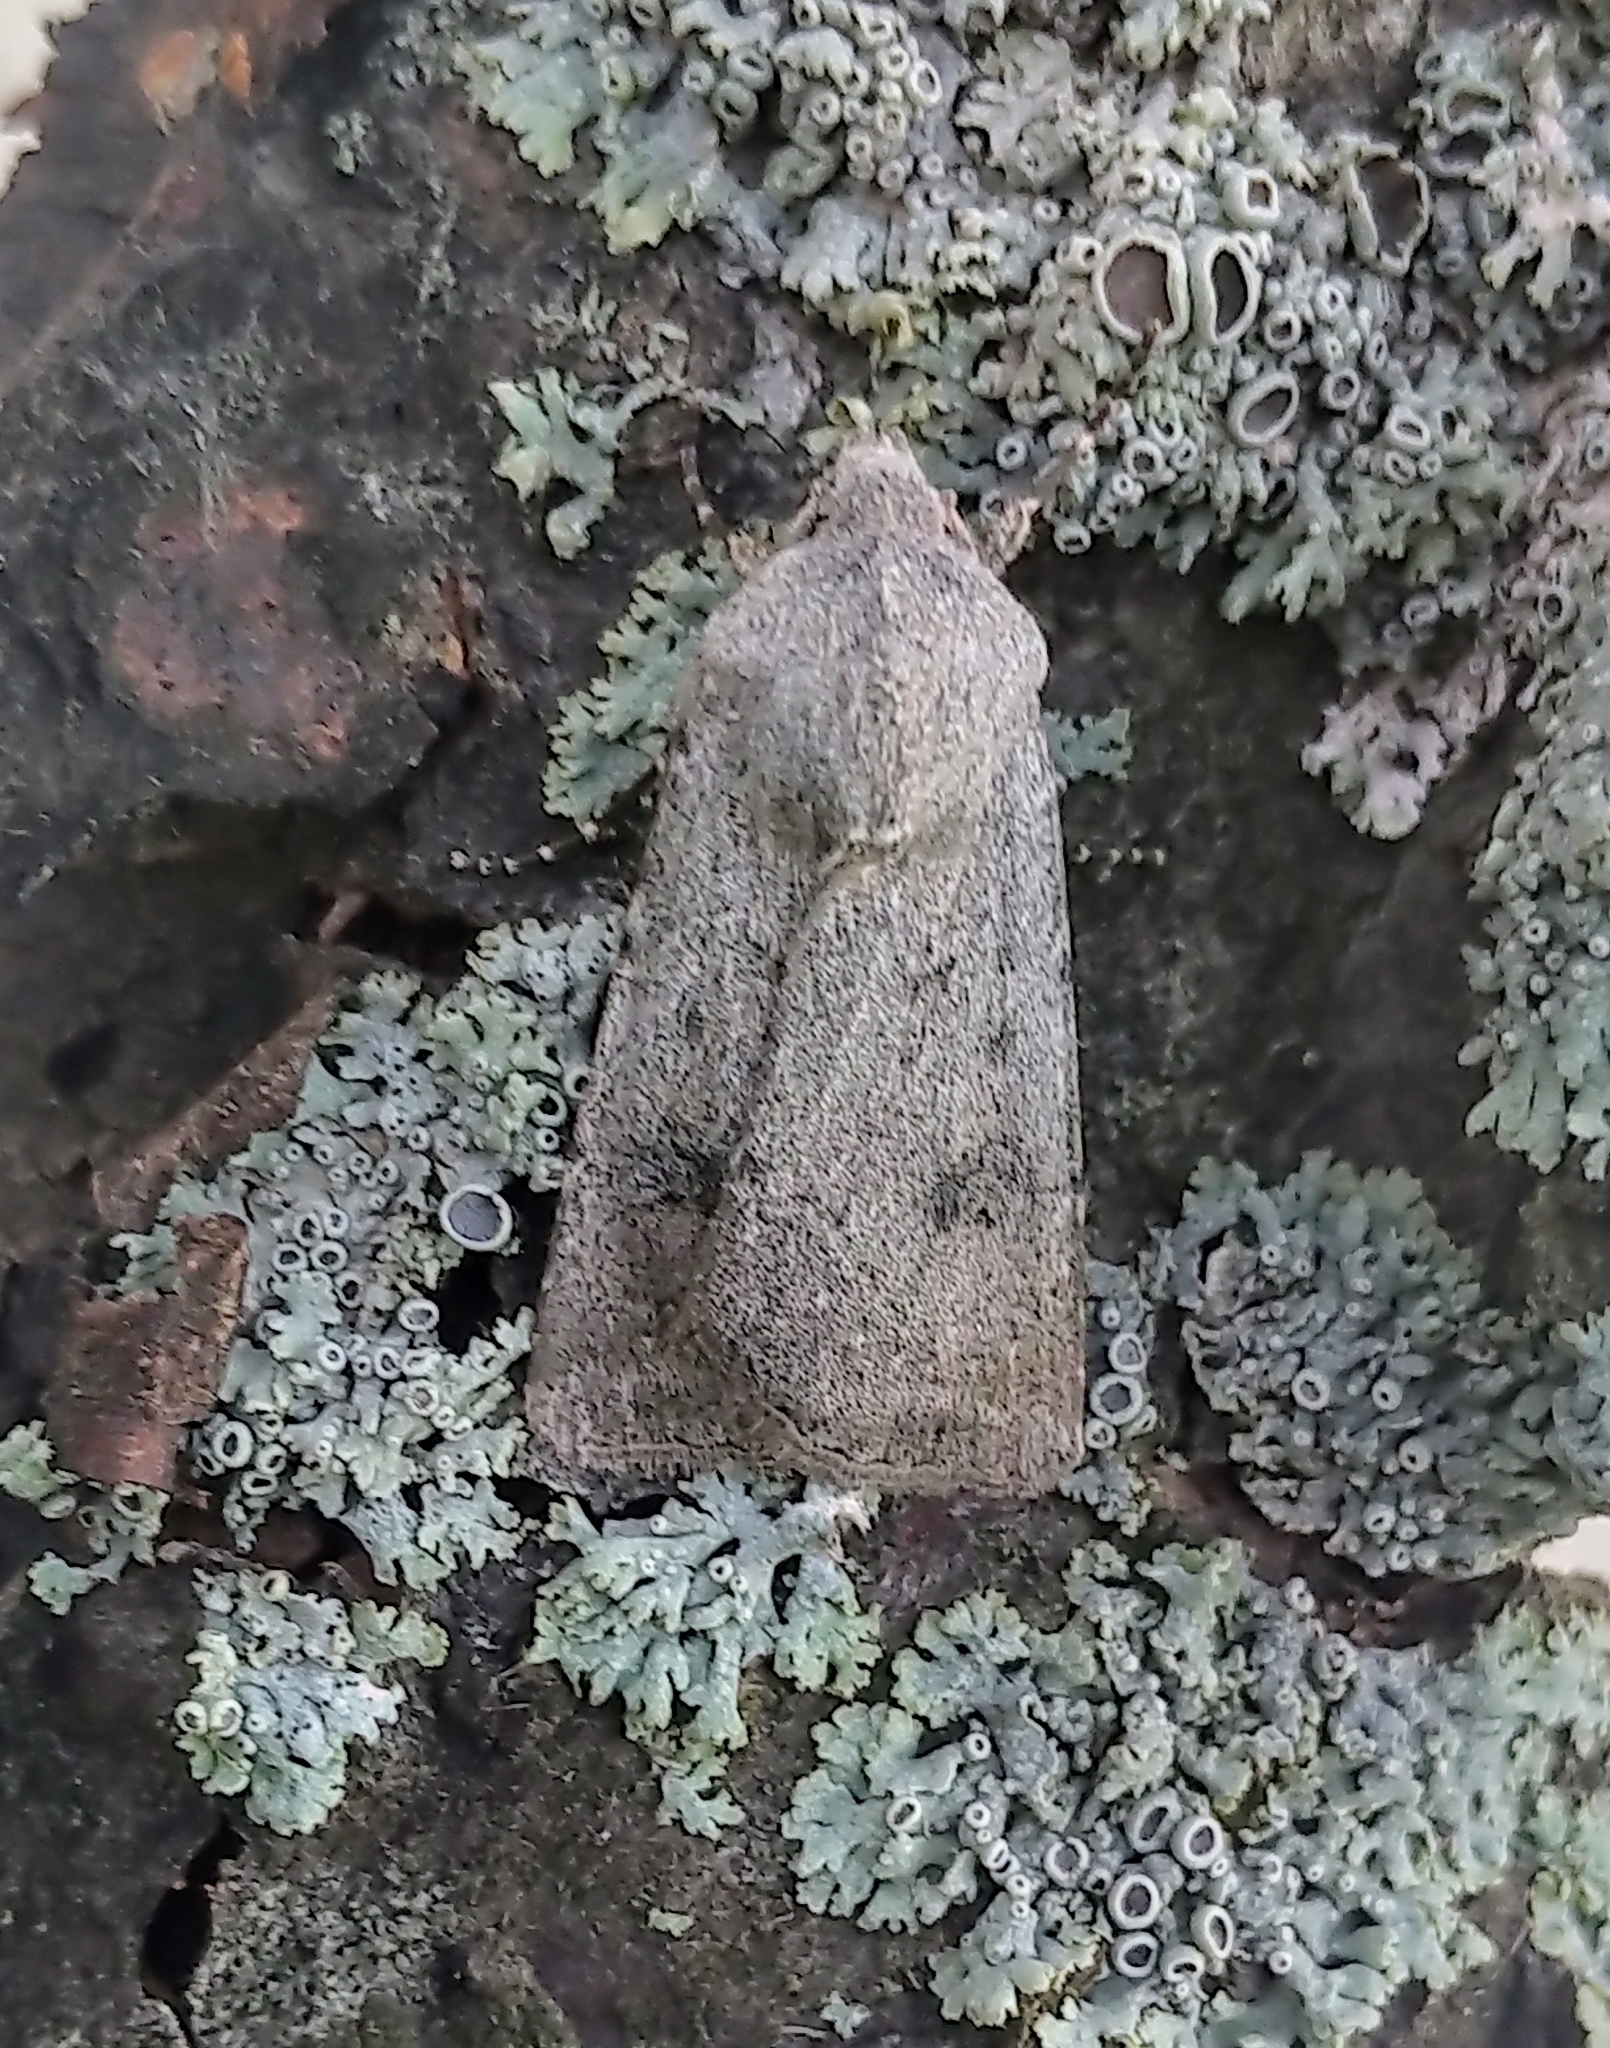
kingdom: Animalia
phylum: Arthropoda
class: Insecta
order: Lepidoptera
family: Noctuidae
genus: Agrotis
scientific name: Agrotis vetusta
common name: Old man dart
